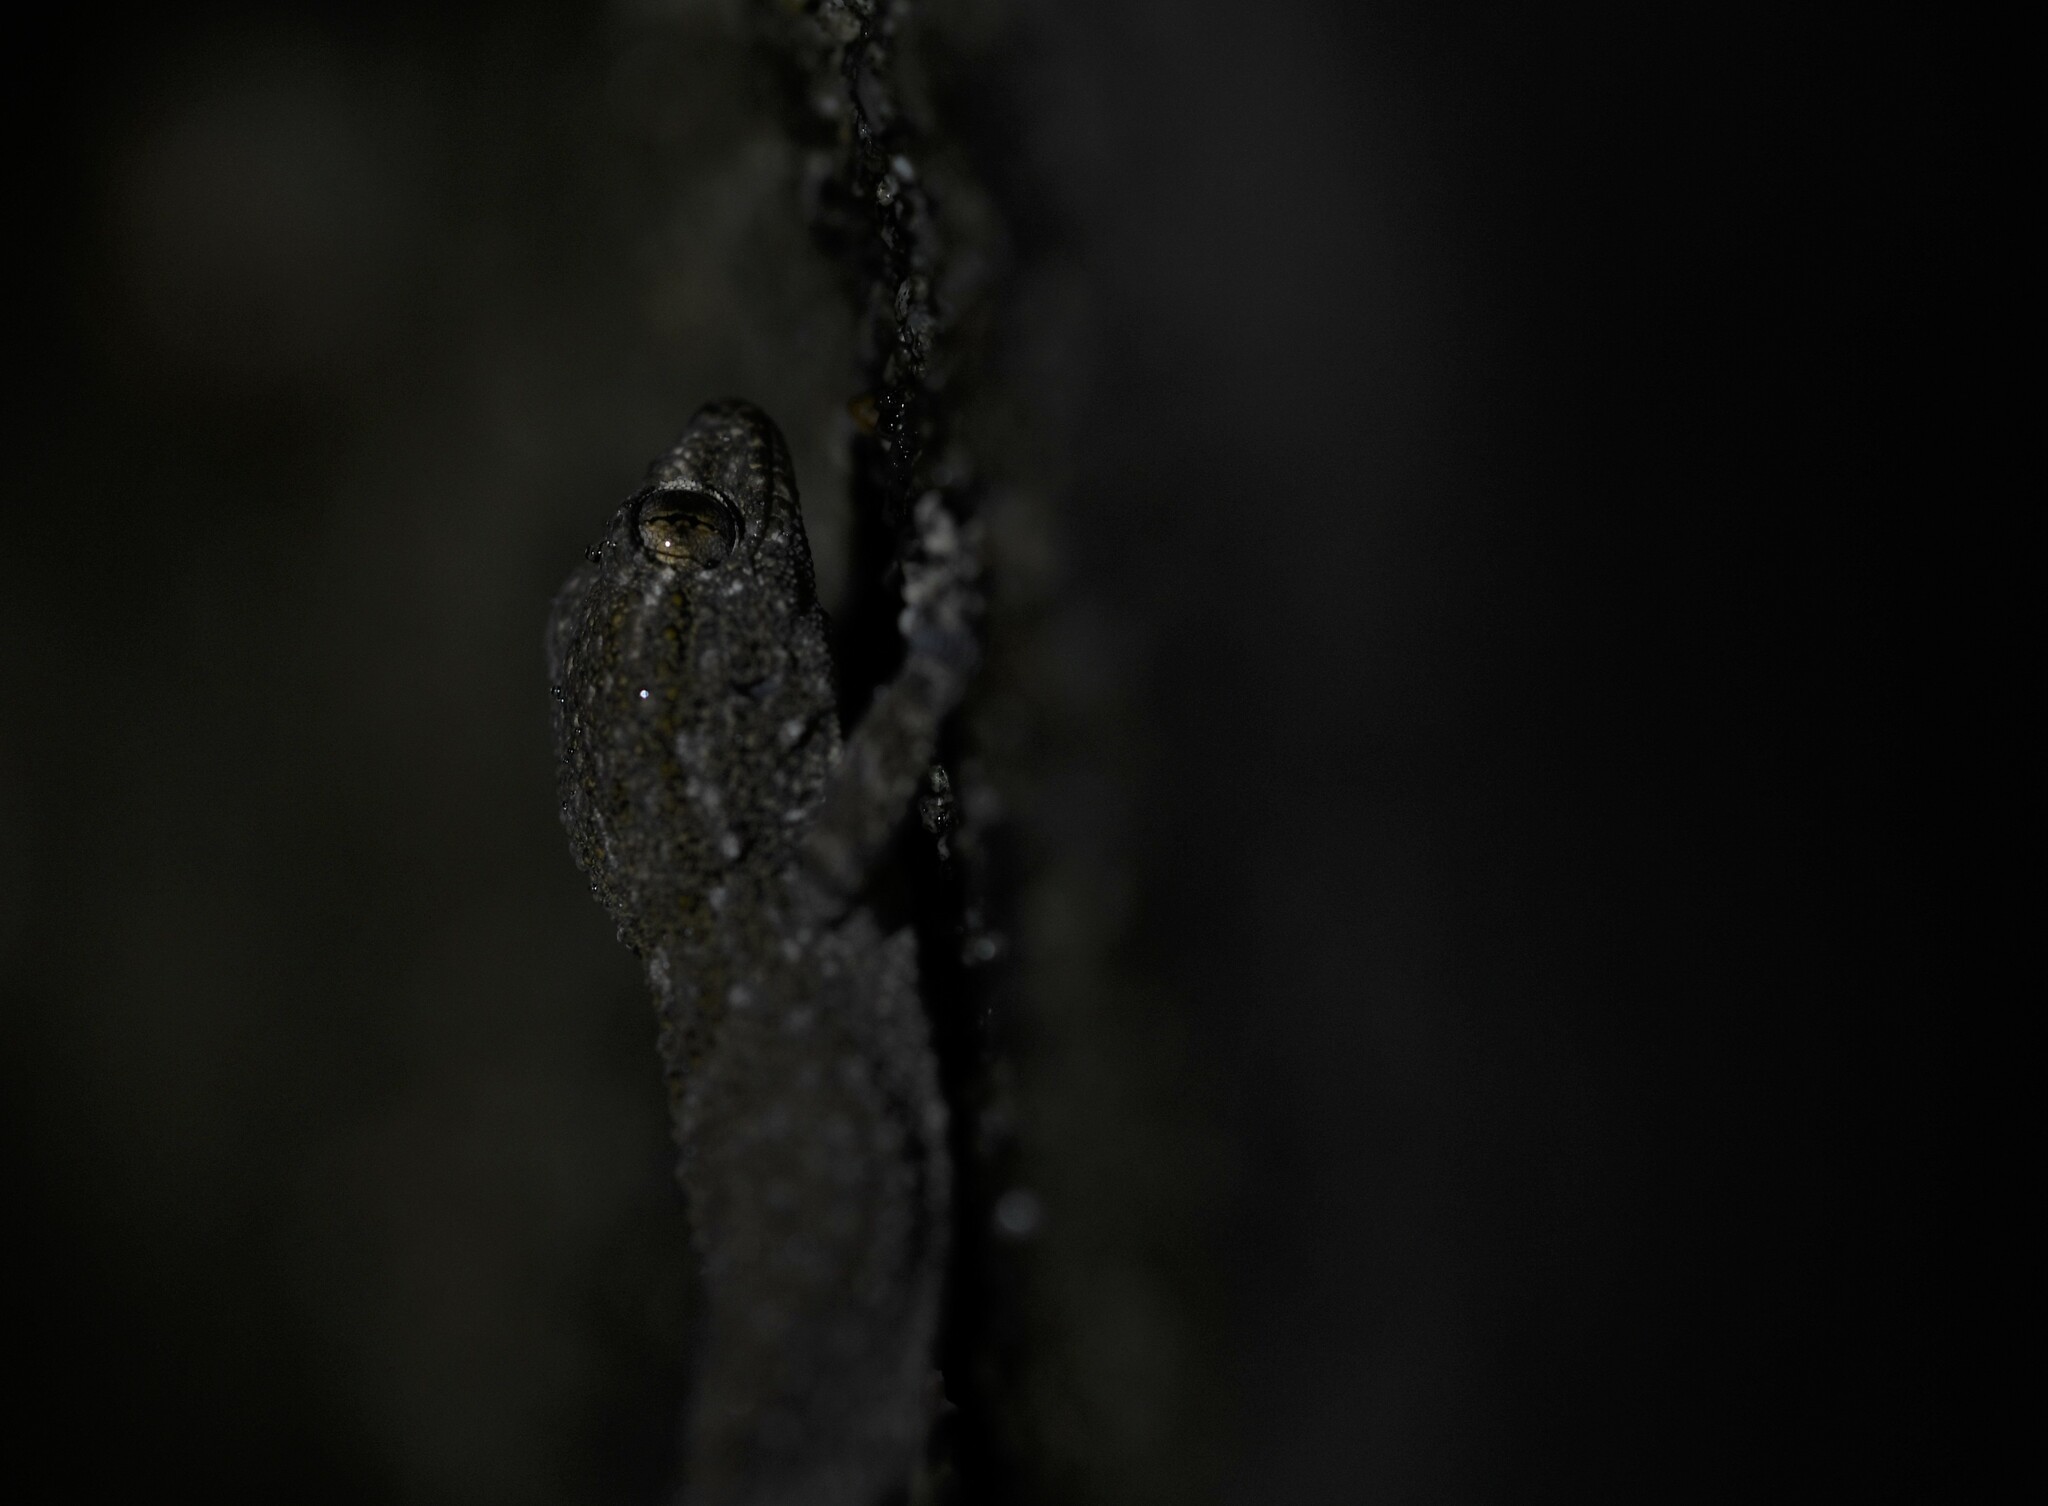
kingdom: Animalia
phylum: Chordata
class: Squamata
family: Phyllodactylidae
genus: Tarentola
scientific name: Tarentola mauritanica
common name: Moorish gecko
